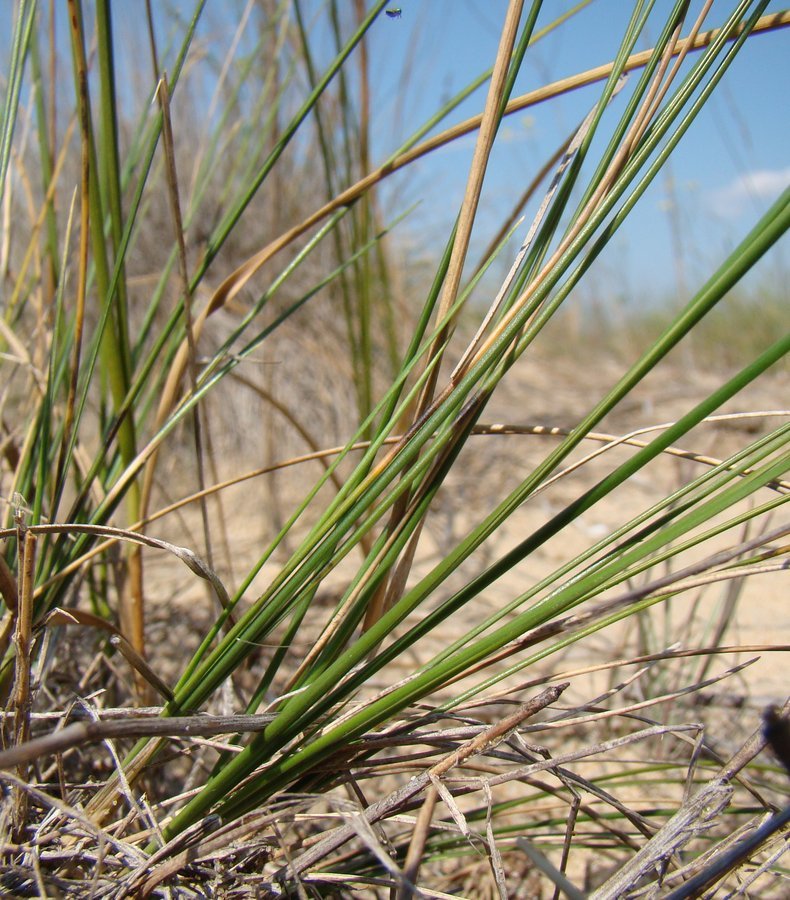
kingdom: Plantae
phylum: Tracheophyta
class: Liliopsida
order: Poales
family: Poaceae
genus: Festuca
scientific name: Festuca beckeri
